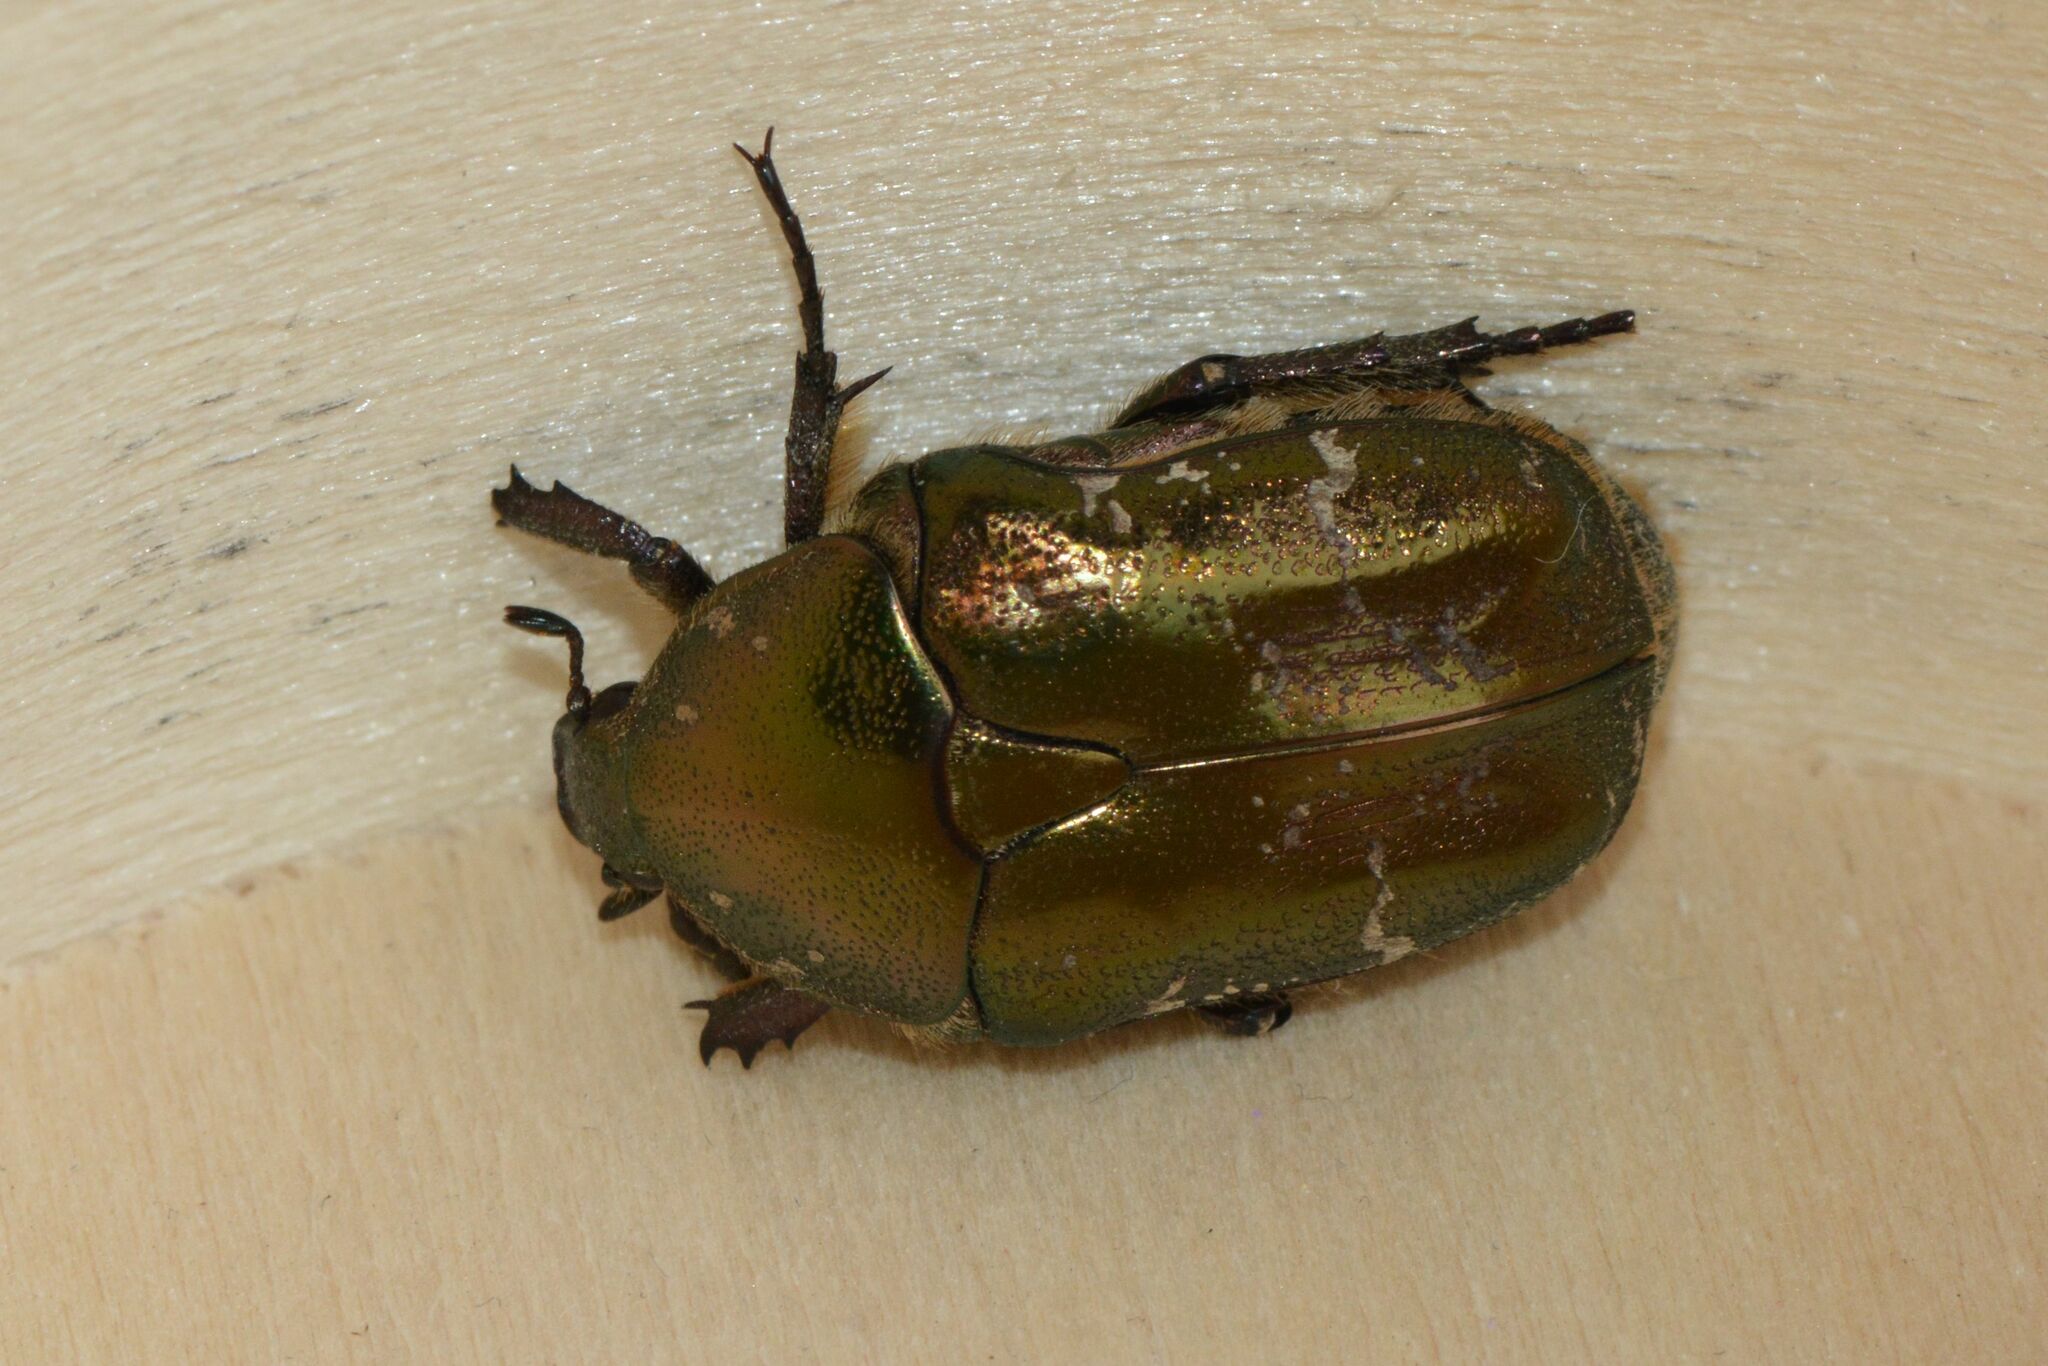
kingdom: Animalia
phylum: Arthropoda
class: Insecta
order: Coleoptera
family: Scarabaeidae
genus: Protaetia
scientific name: Protaetia cuprea
